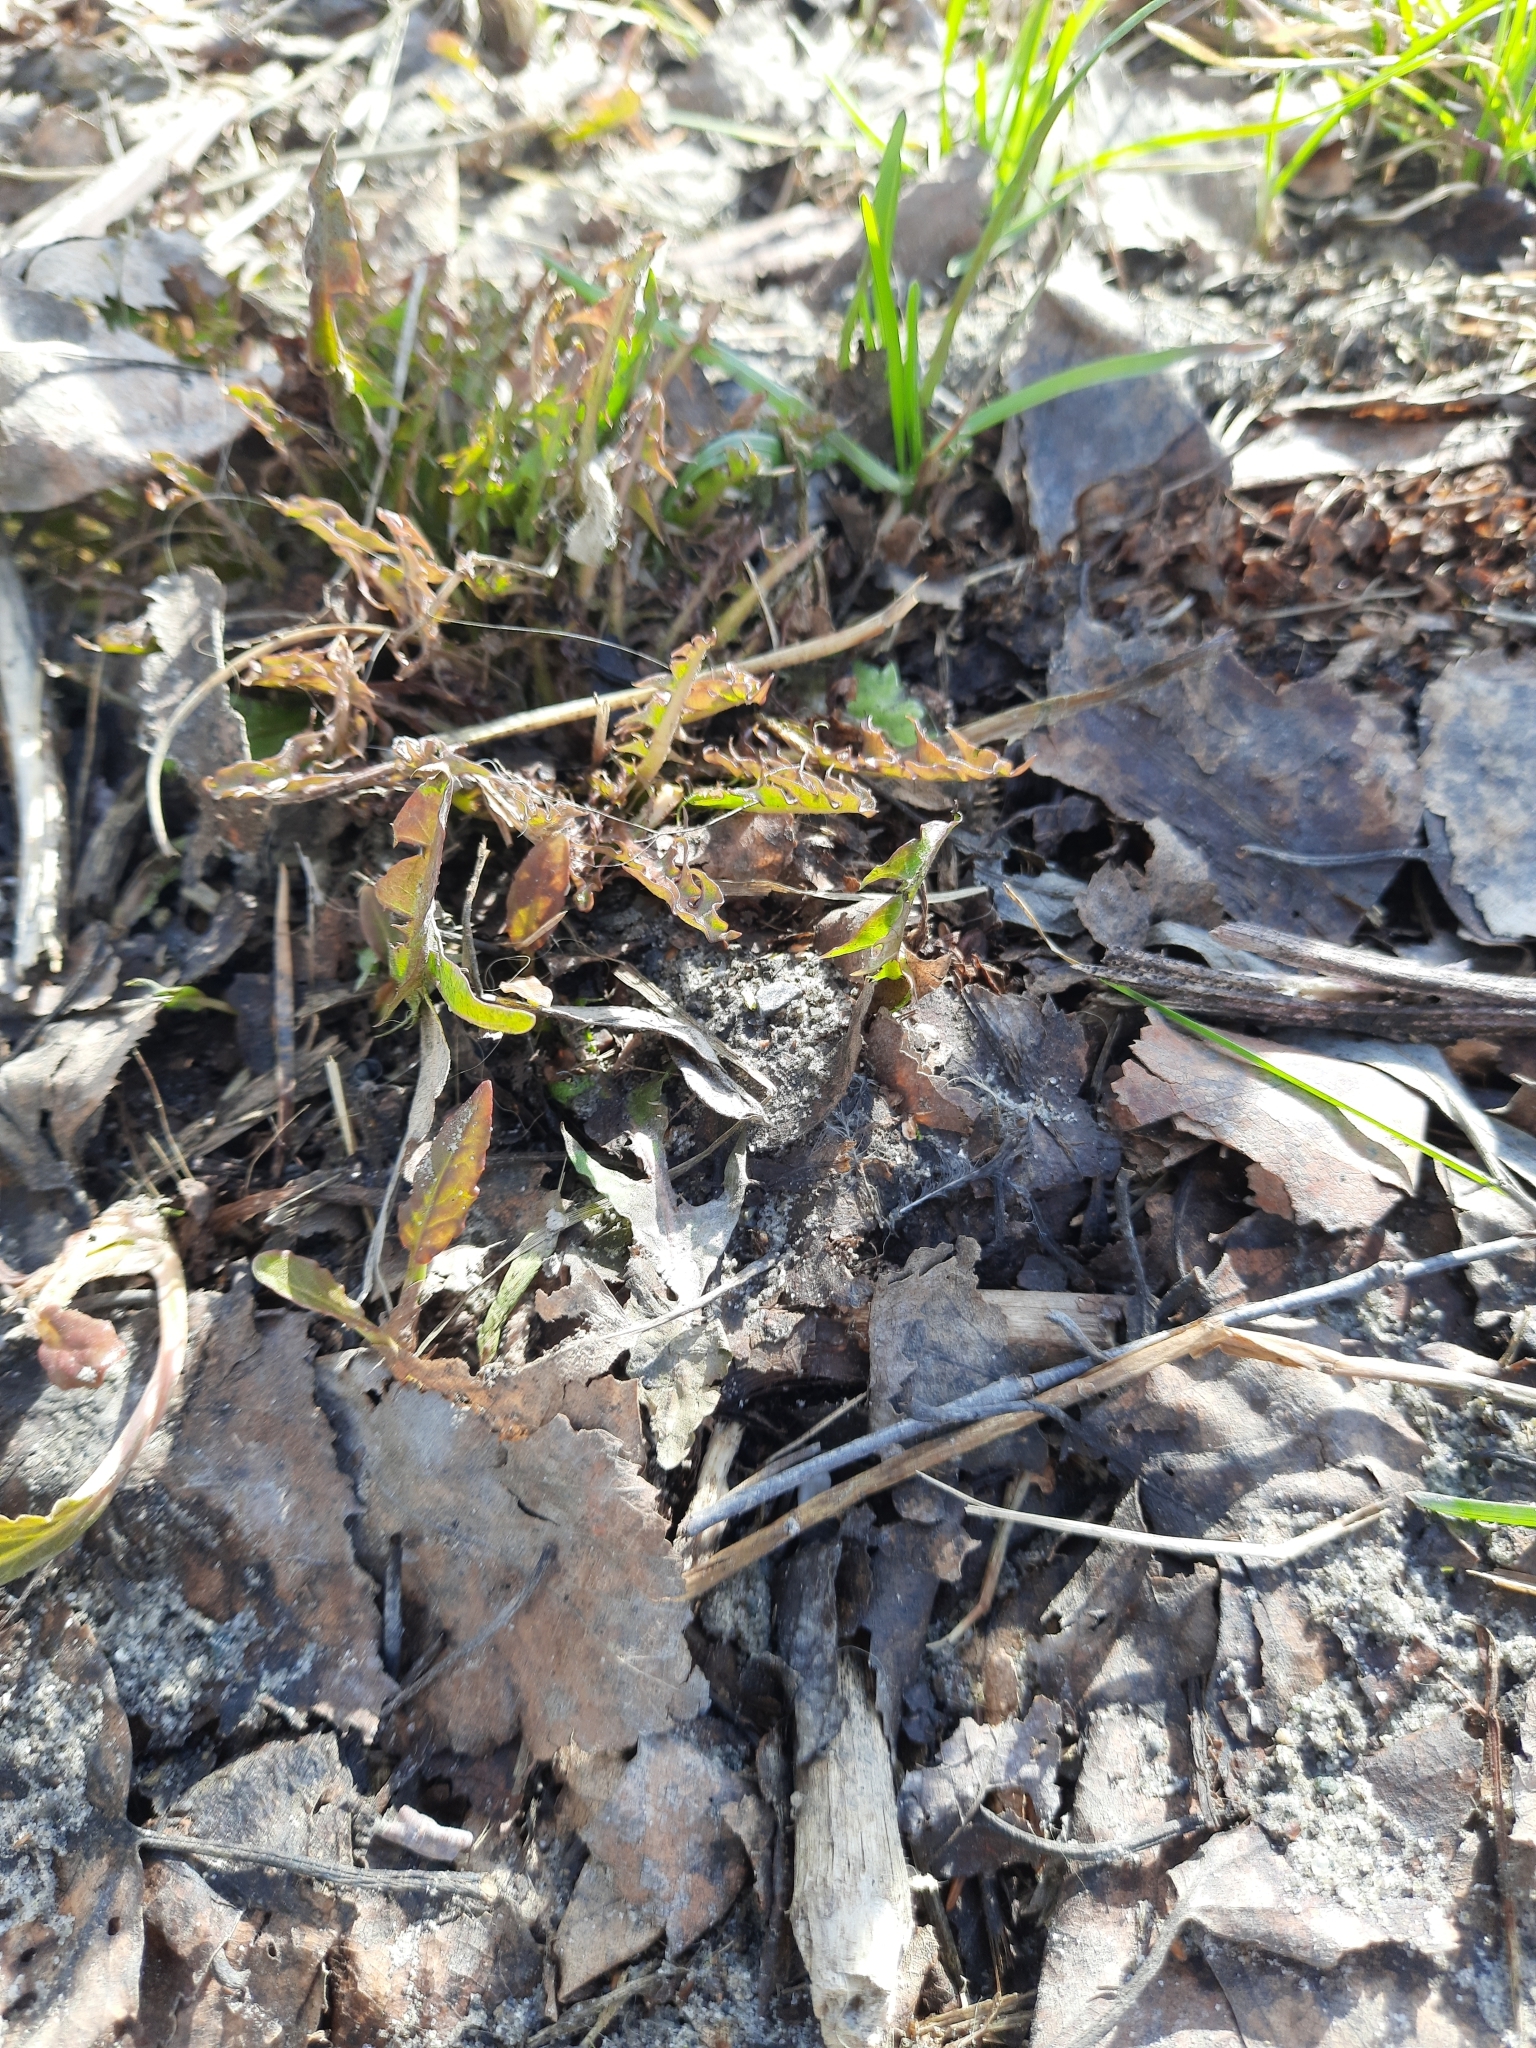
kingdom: Plantae
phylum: Tracheophyta
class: Magnoliopsida
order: Asterales
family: Asteraceae
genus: Taraxacum
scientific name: Taraxacum officinale
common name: Common dandelion
